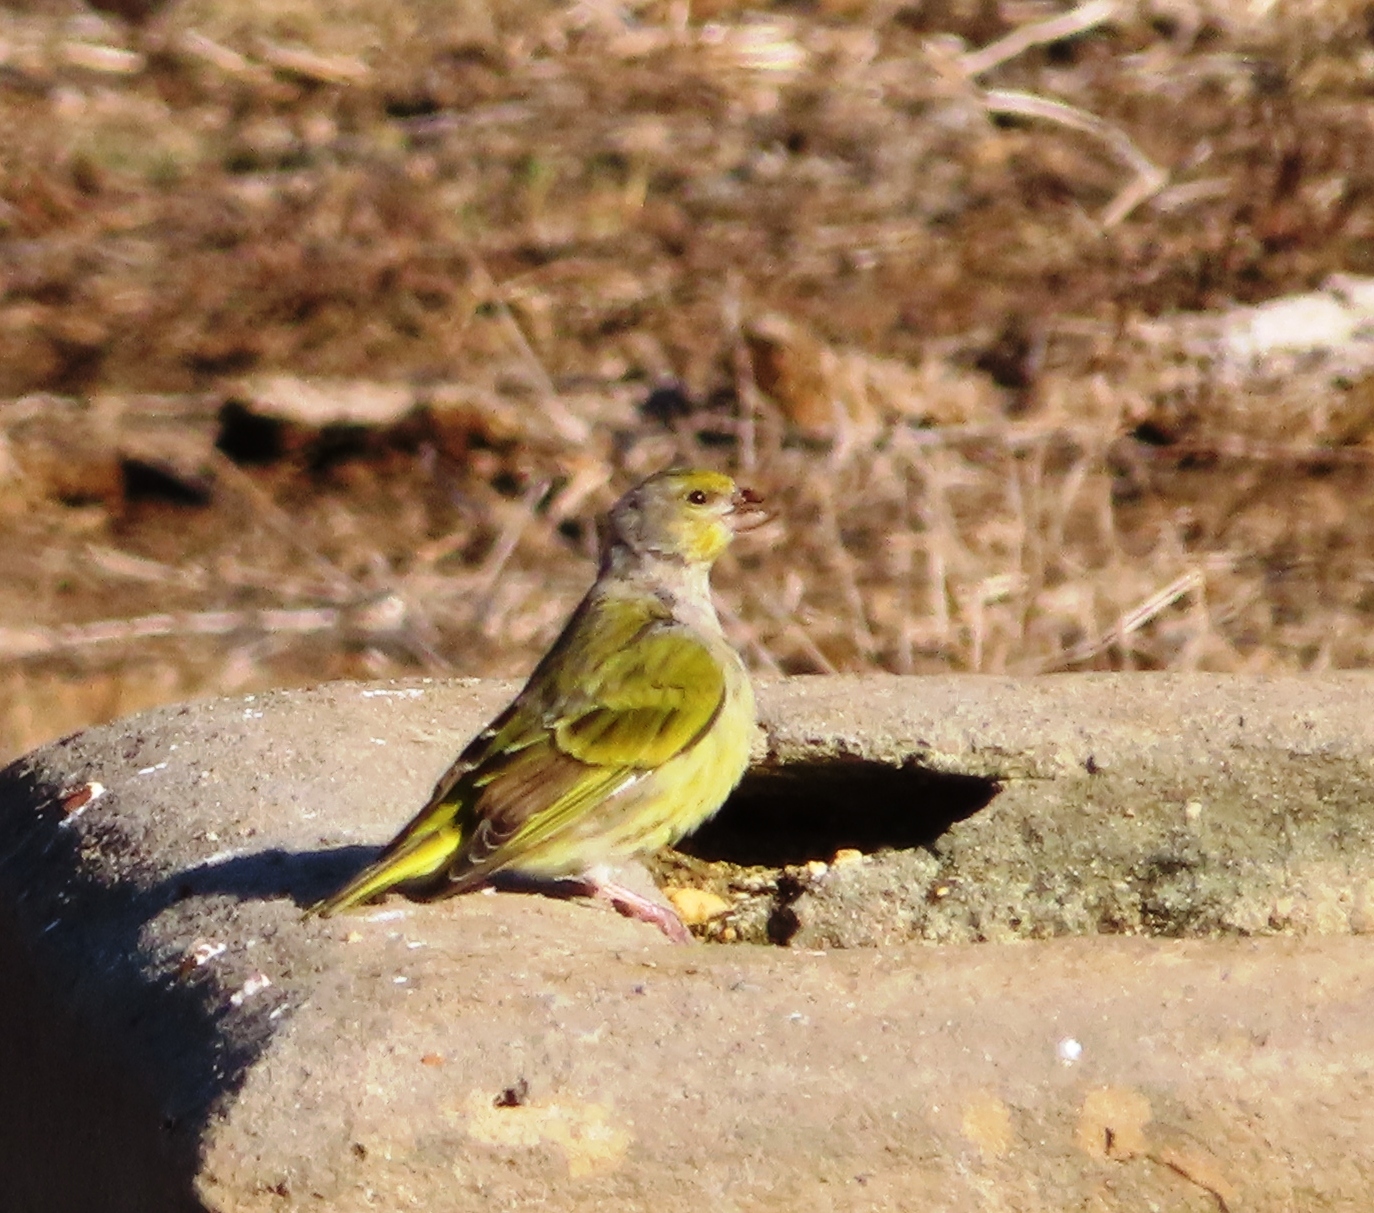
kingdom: Animalia
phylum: Chordata
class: Aves
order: Passeriformes
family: Fringillidae
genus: Serinus
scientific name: Serinus canicollis
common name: Cape canary
